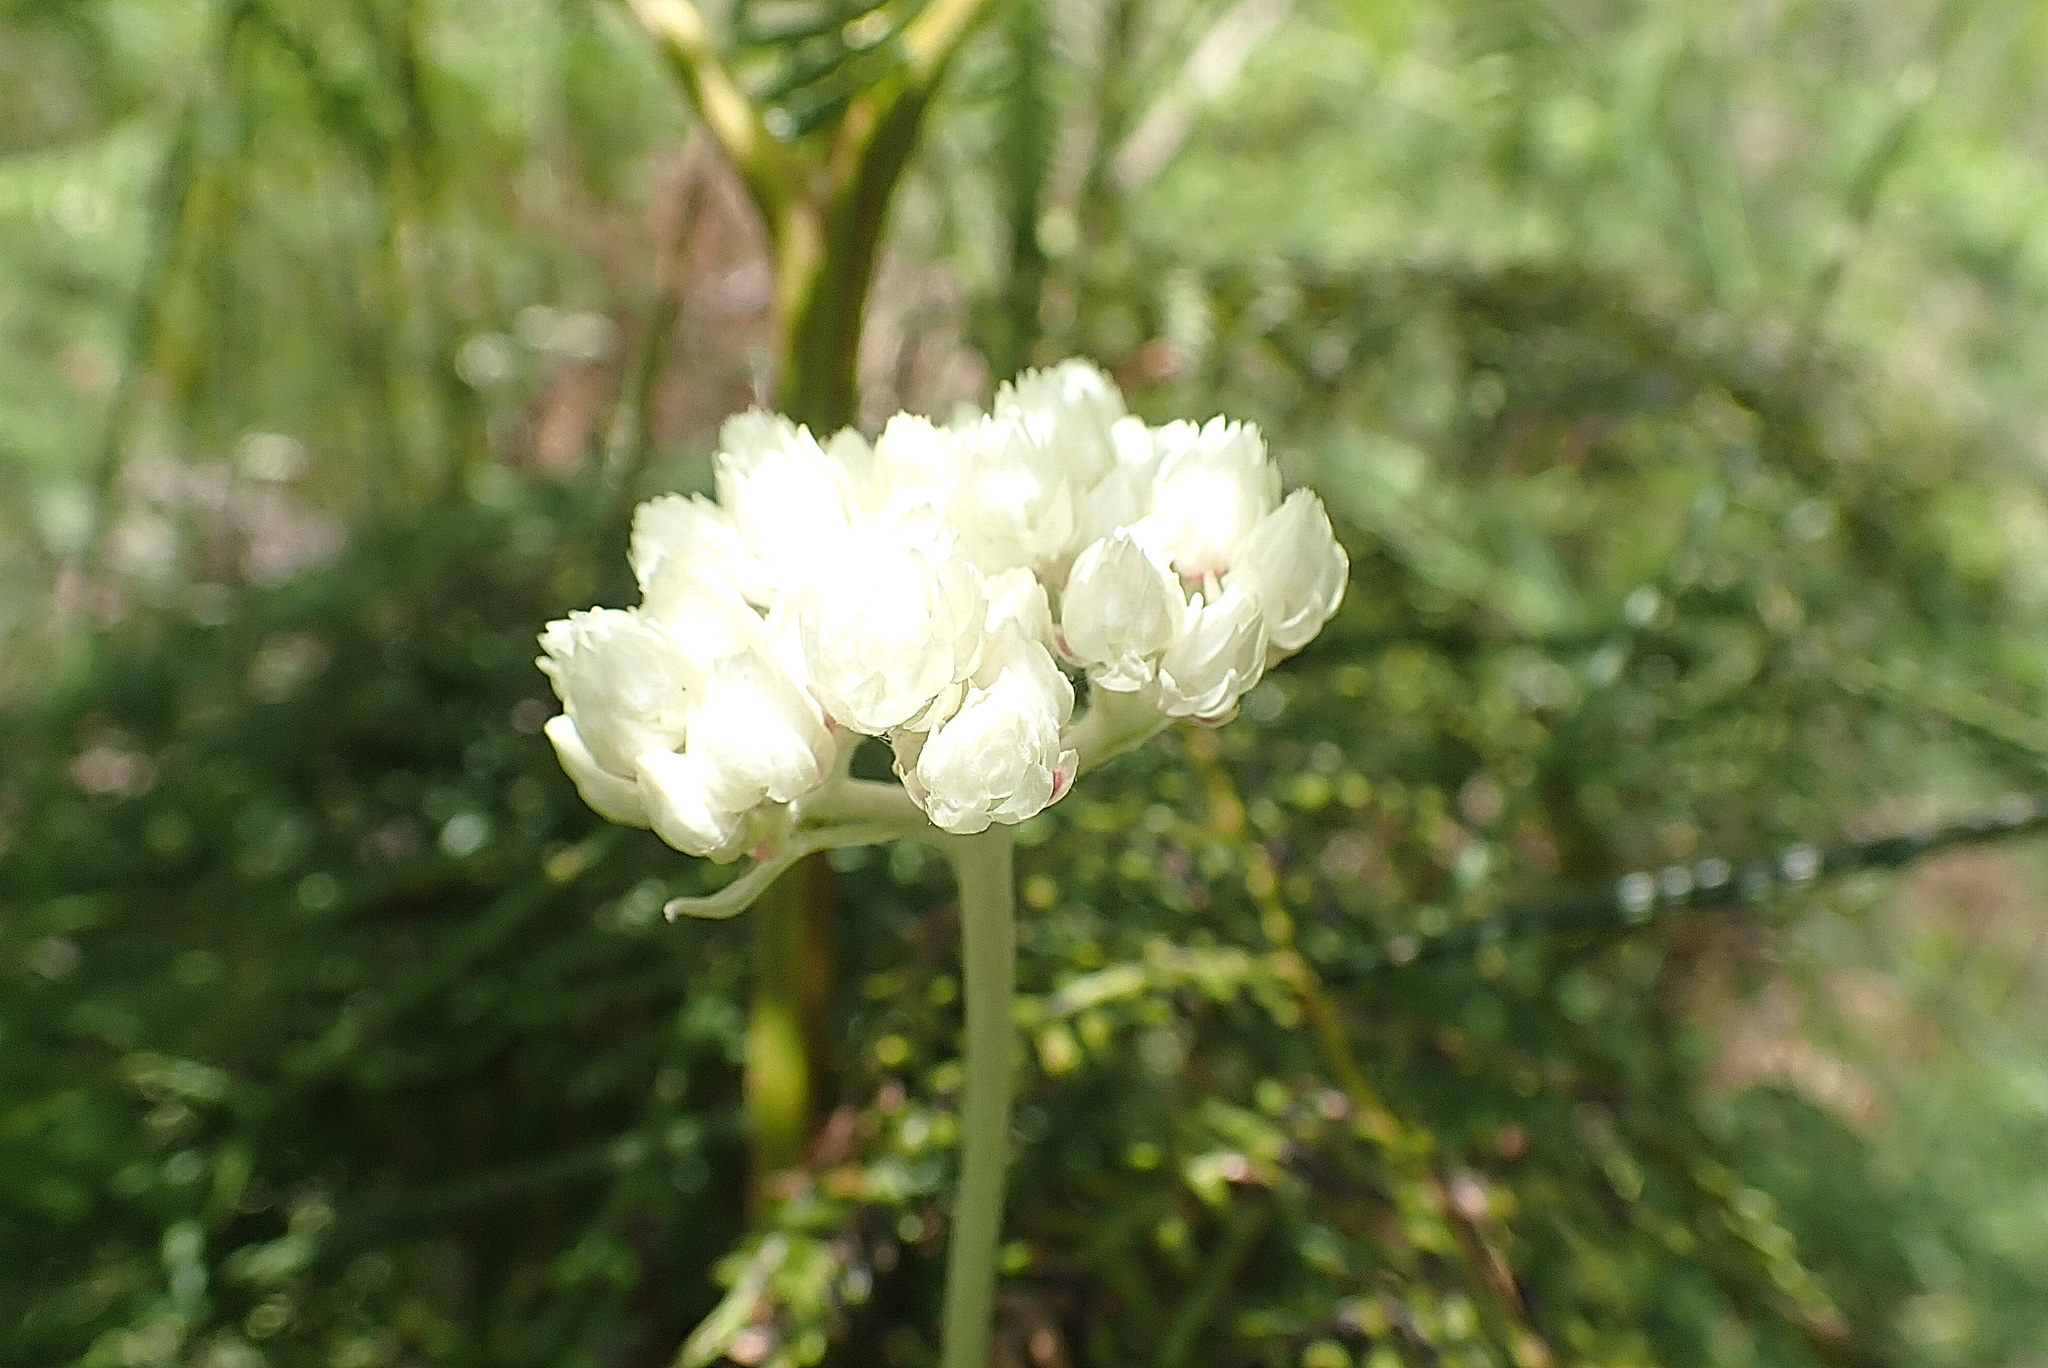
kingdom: Plantae
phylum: Tracheophyta
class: Liliopsida
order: Asparagales
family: Asparagaceae
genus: Ornithogalum
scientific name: Ornithogalum dubium
